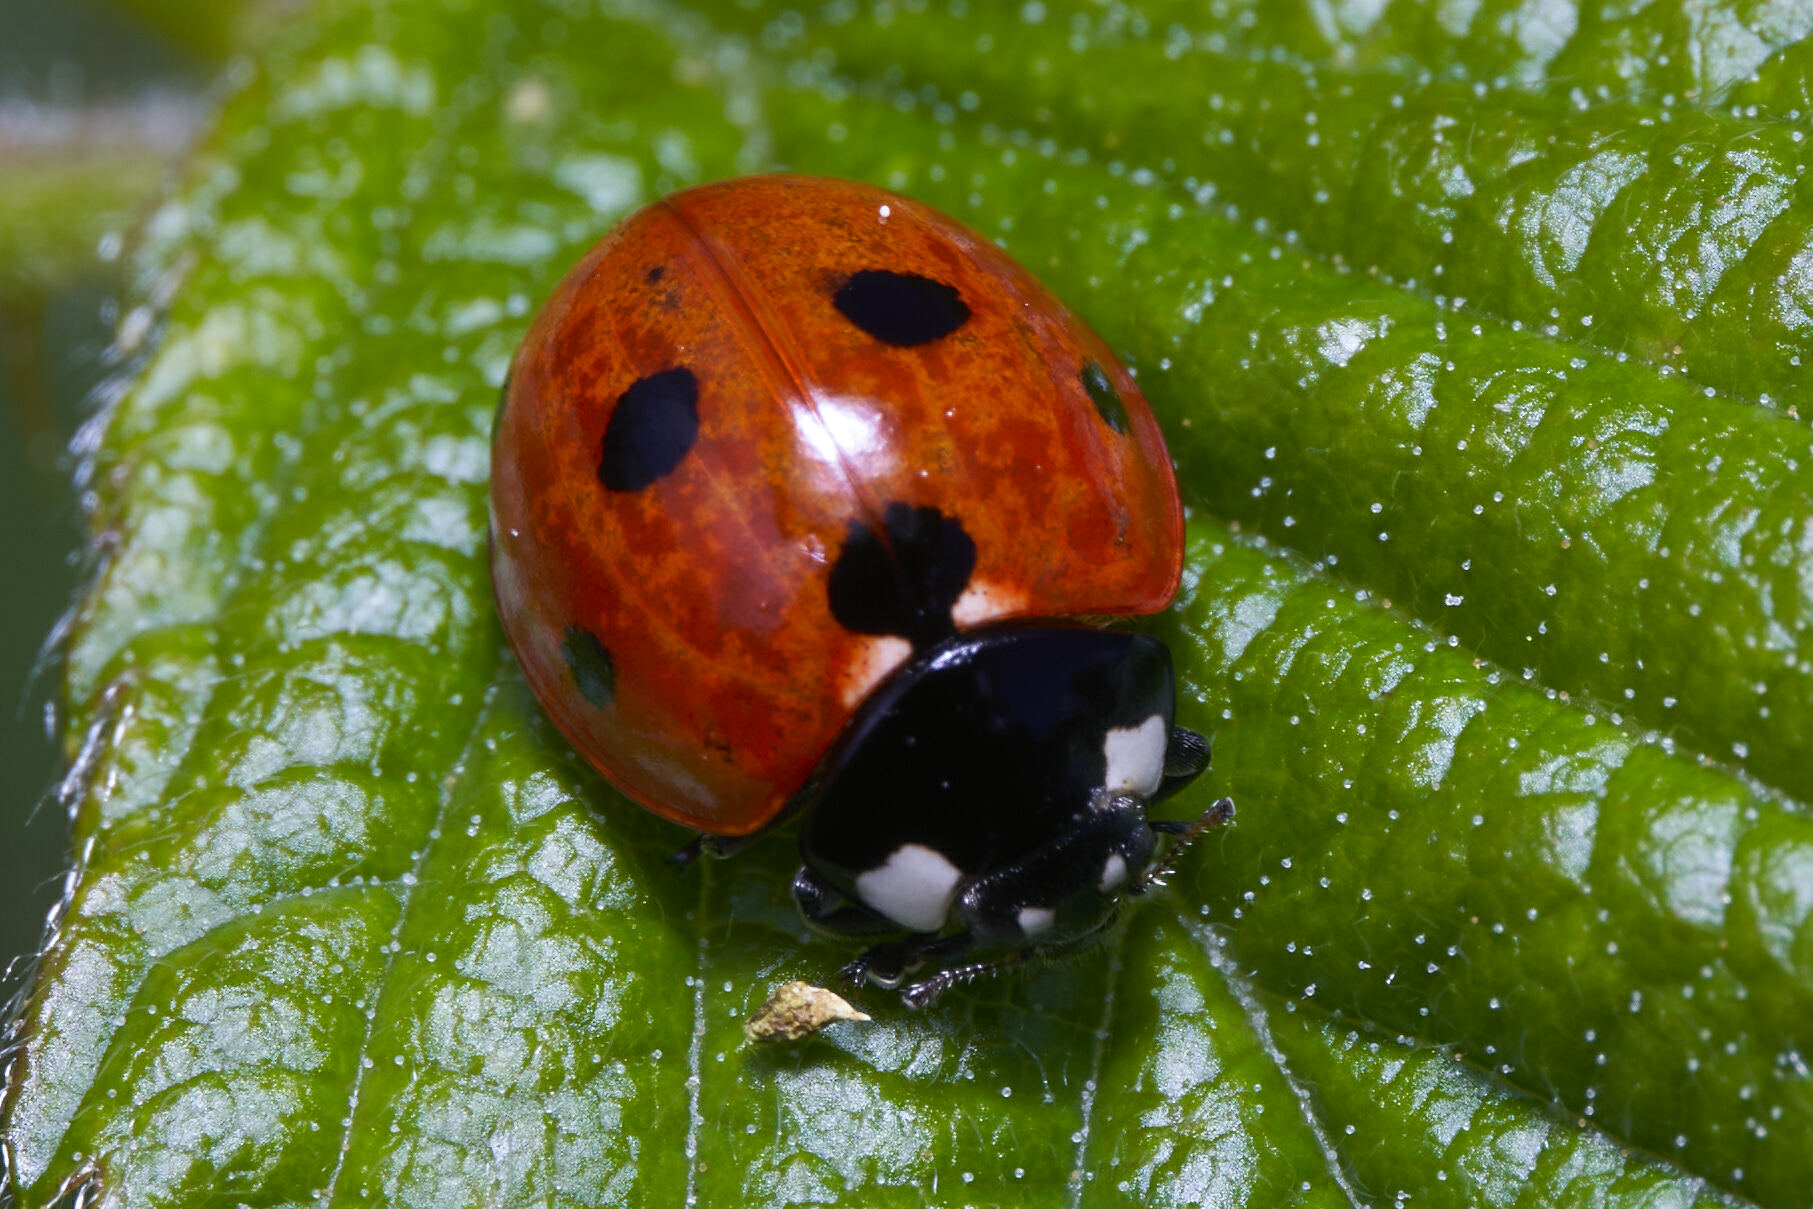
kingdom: Animalia
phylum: Arthropoda
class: Insecta
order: Coleoptera
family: Coccinellidae
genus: Coccinella
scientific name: Coccinella septempunctata
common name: Sevenspotted lady beetle
